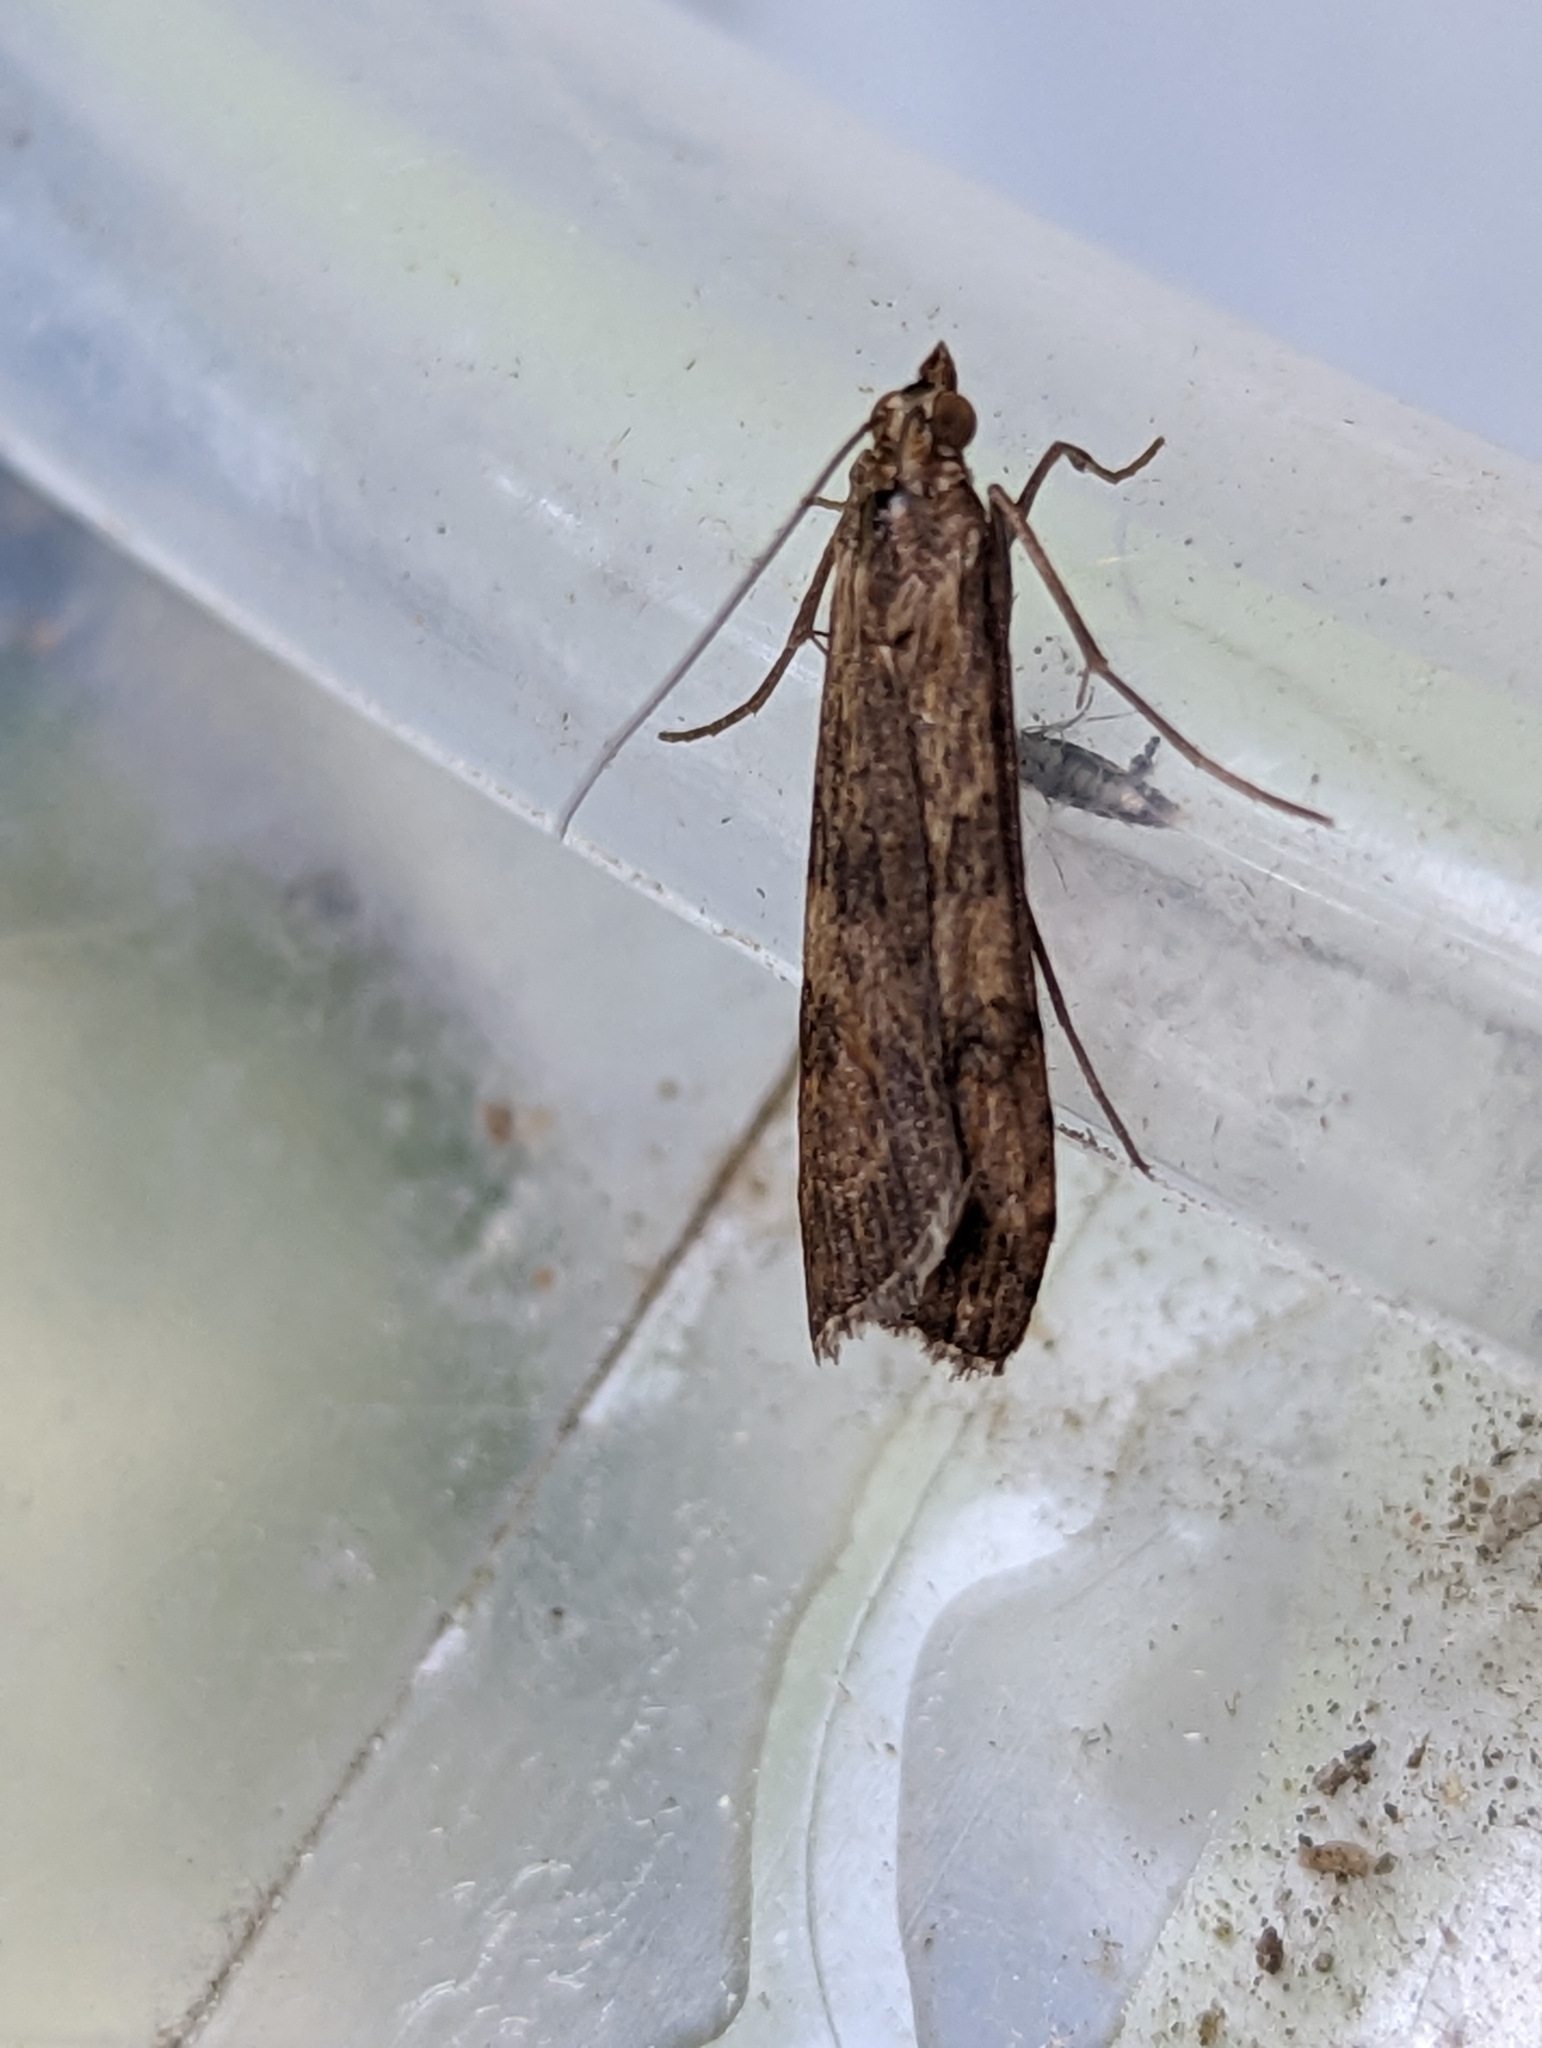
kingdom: Animalia
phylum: Arthropoda
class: Insecta
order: Lepidoptera
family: Crambidae
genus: Nomophila
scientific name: Nomophila noctuella
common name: Rush veneer
